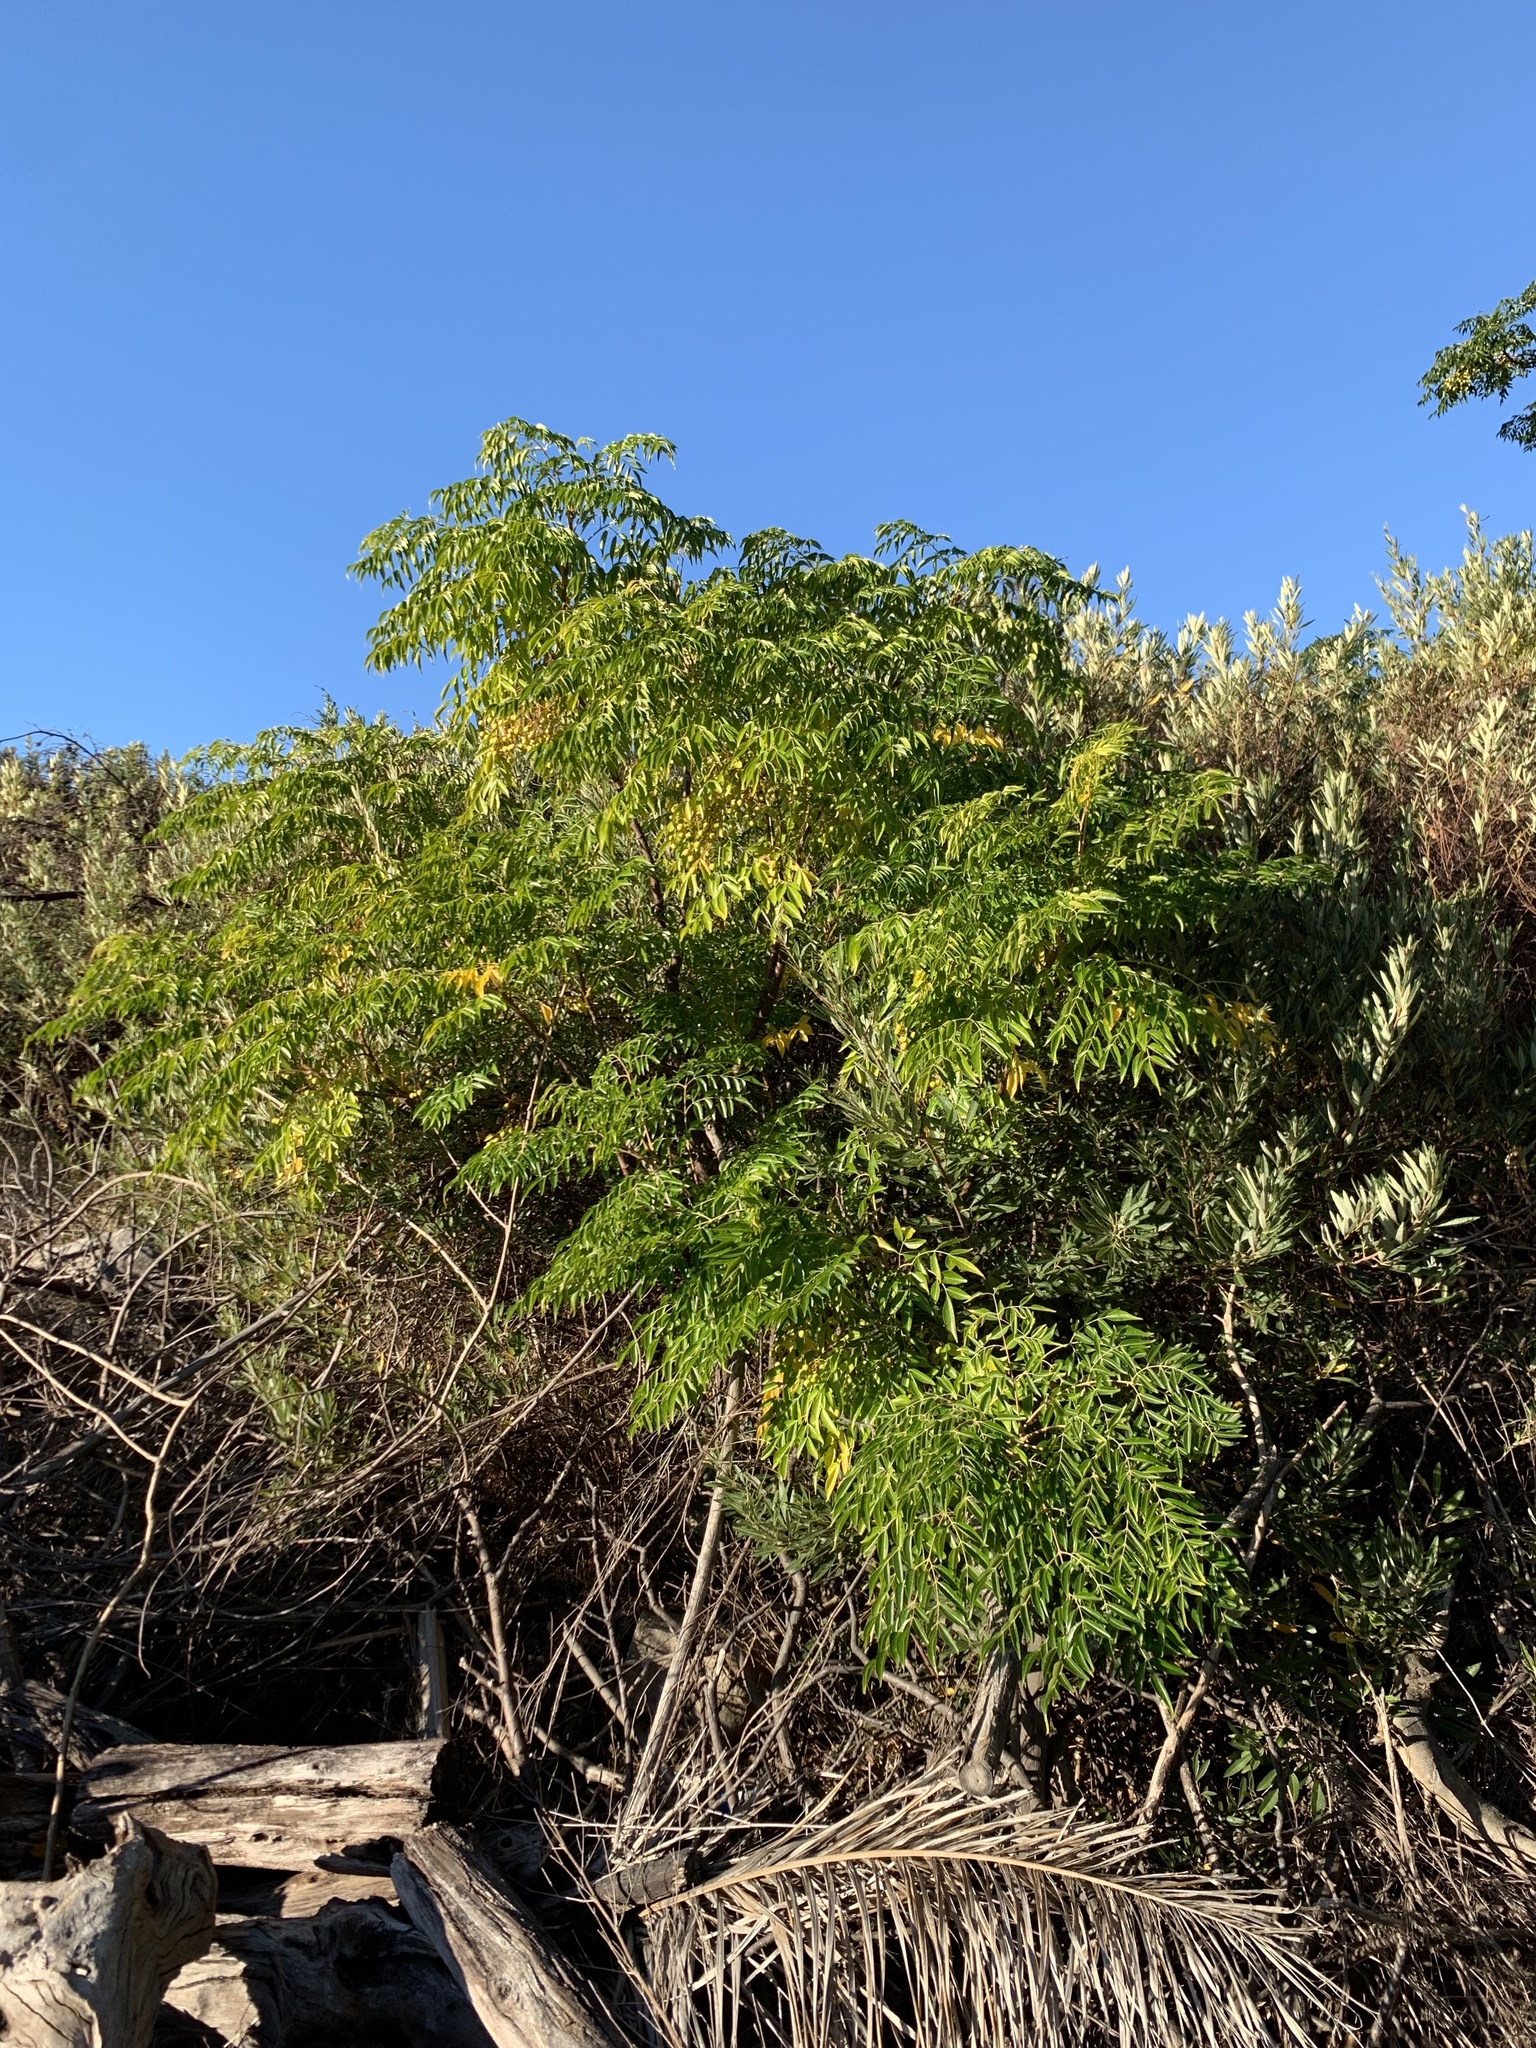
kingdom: Plantae
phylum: Tracheophyta
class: Magnoliopsida
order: Sapindales
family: Meliaceae
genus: Melia
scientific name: Melia azedarach
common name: Chinaberrytree
